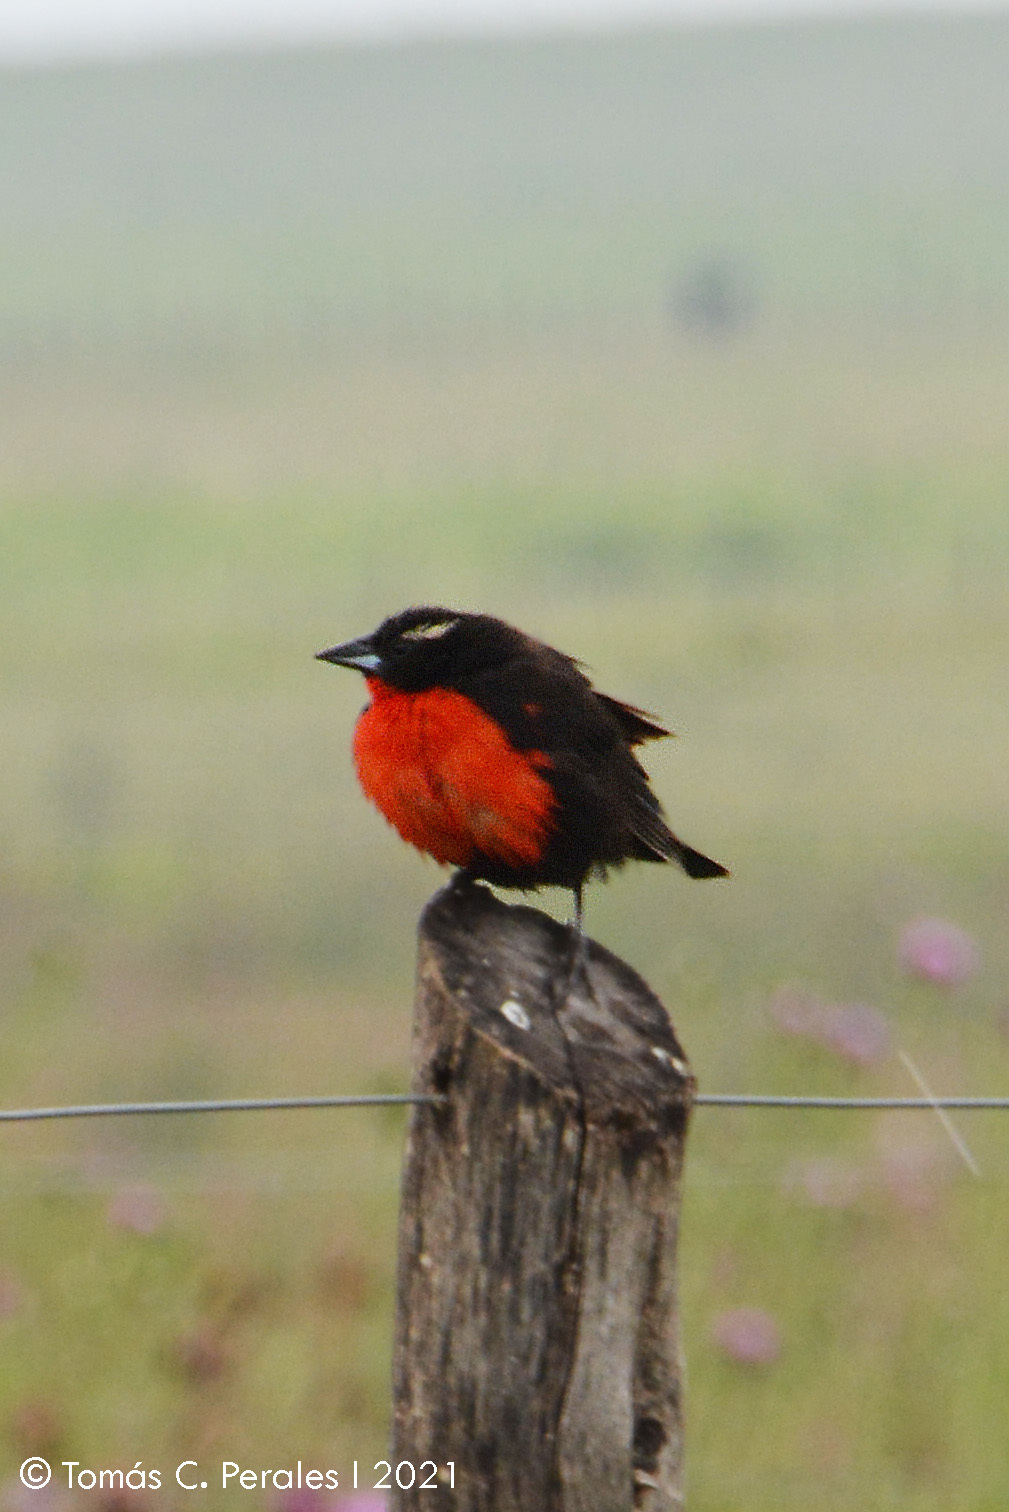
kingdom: Animalia
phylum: Chordata
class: Aves
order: Passeriformes
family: Icteridae
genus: Sturnella
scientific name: Sturnella superciliaris
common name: White-browed blackbird
